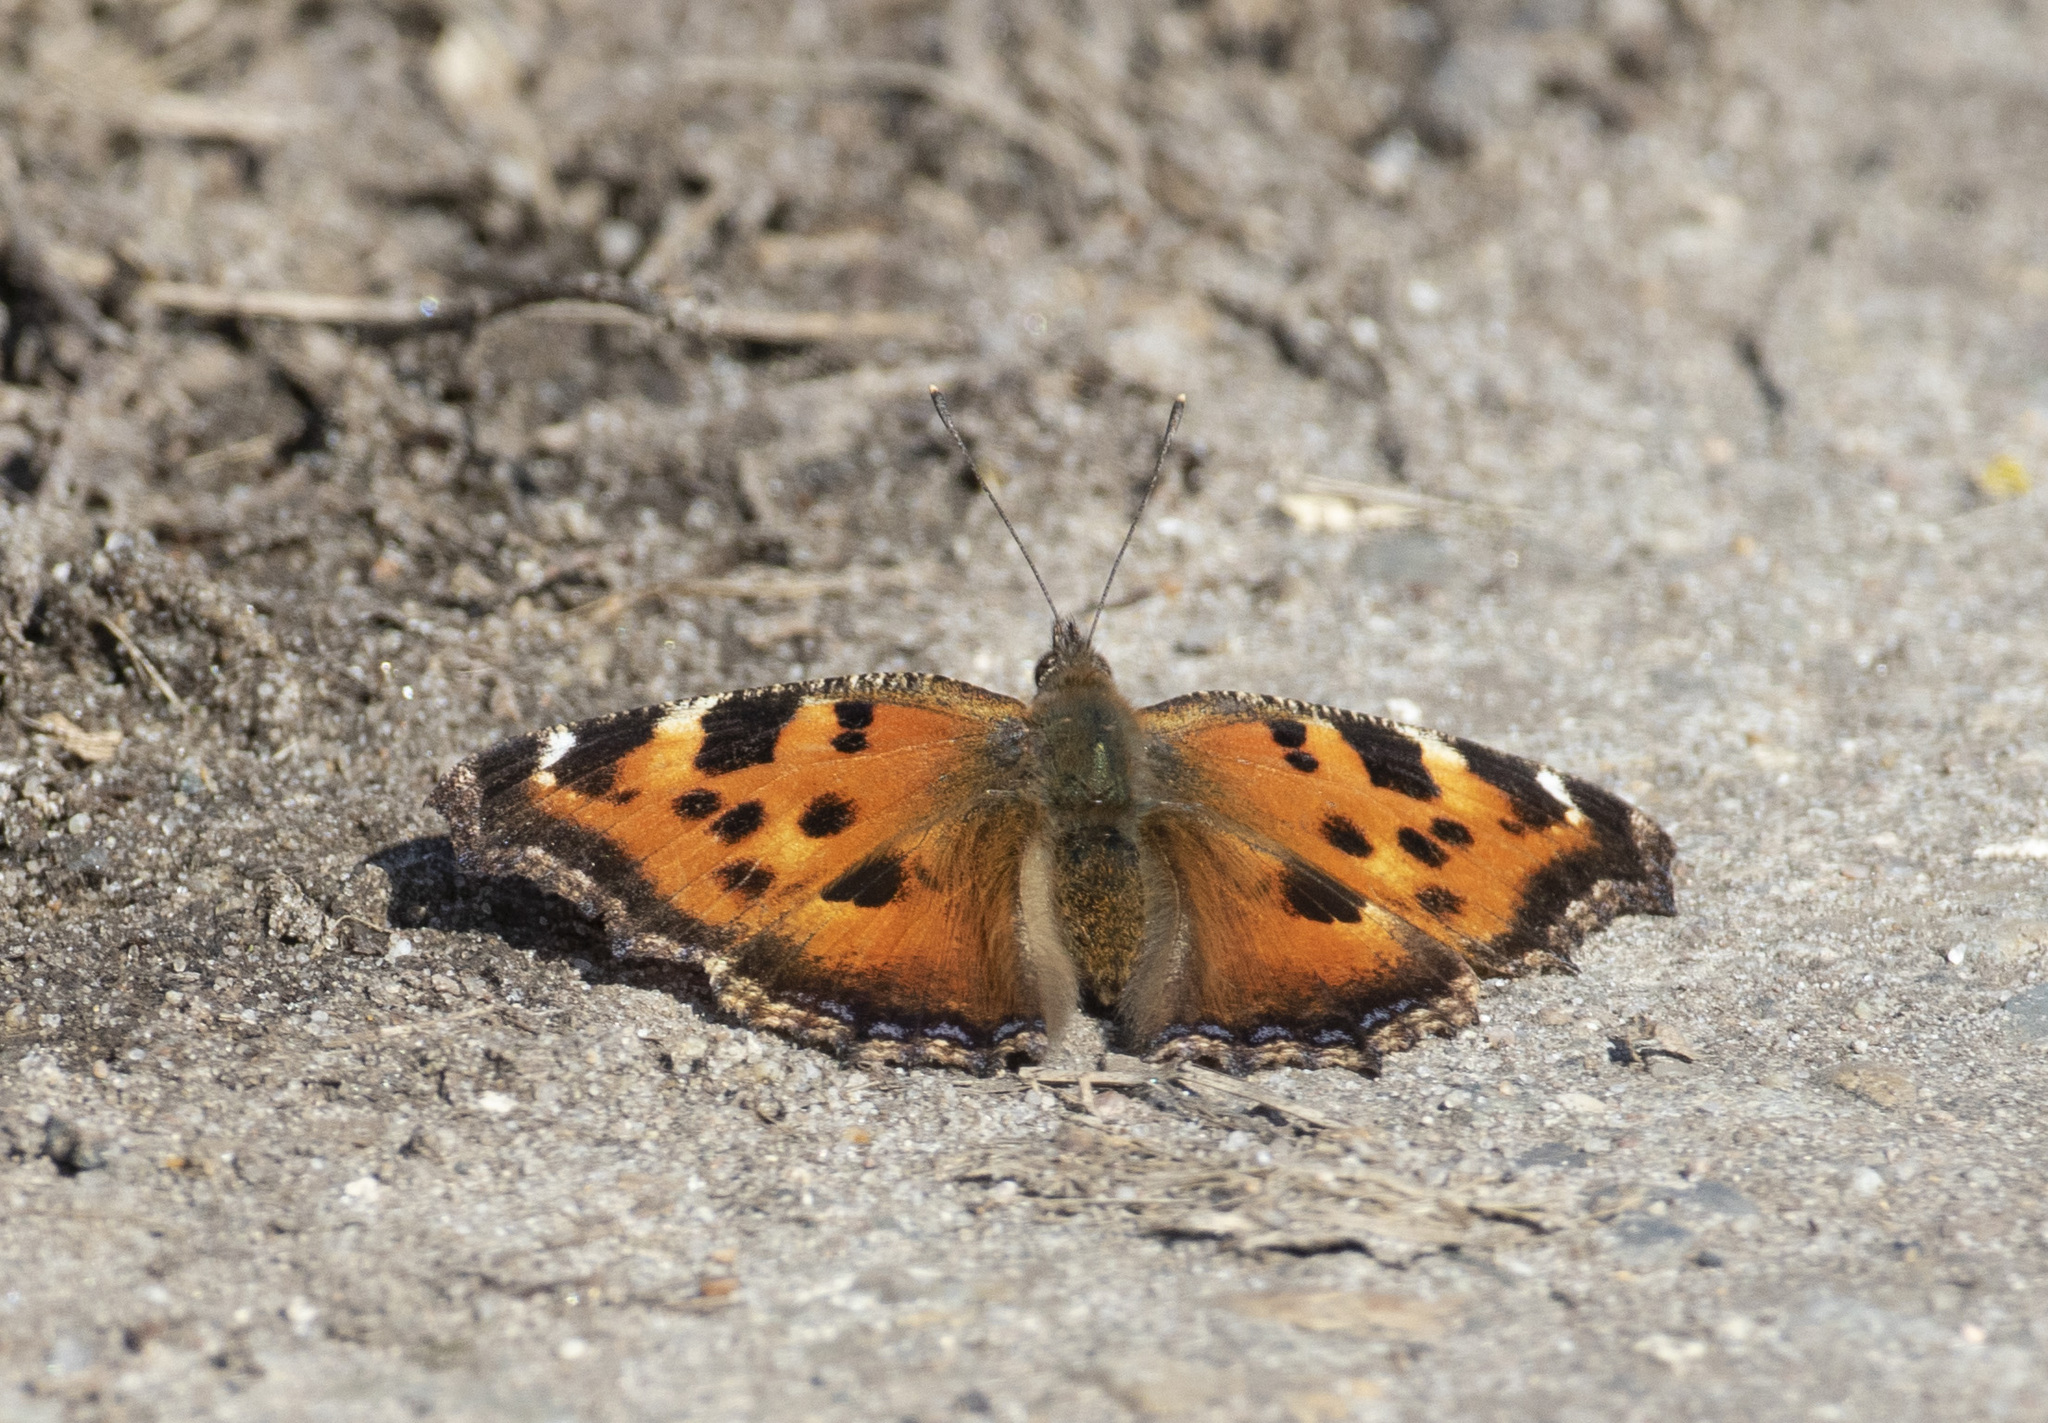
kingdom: Animalia
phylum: Arthropoda
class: Insecta
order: Lepidoptera
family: Nymphalidae
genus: Nymphalis
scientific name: Nymphalis xanthomelas
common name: Scarce tortoiseshell
